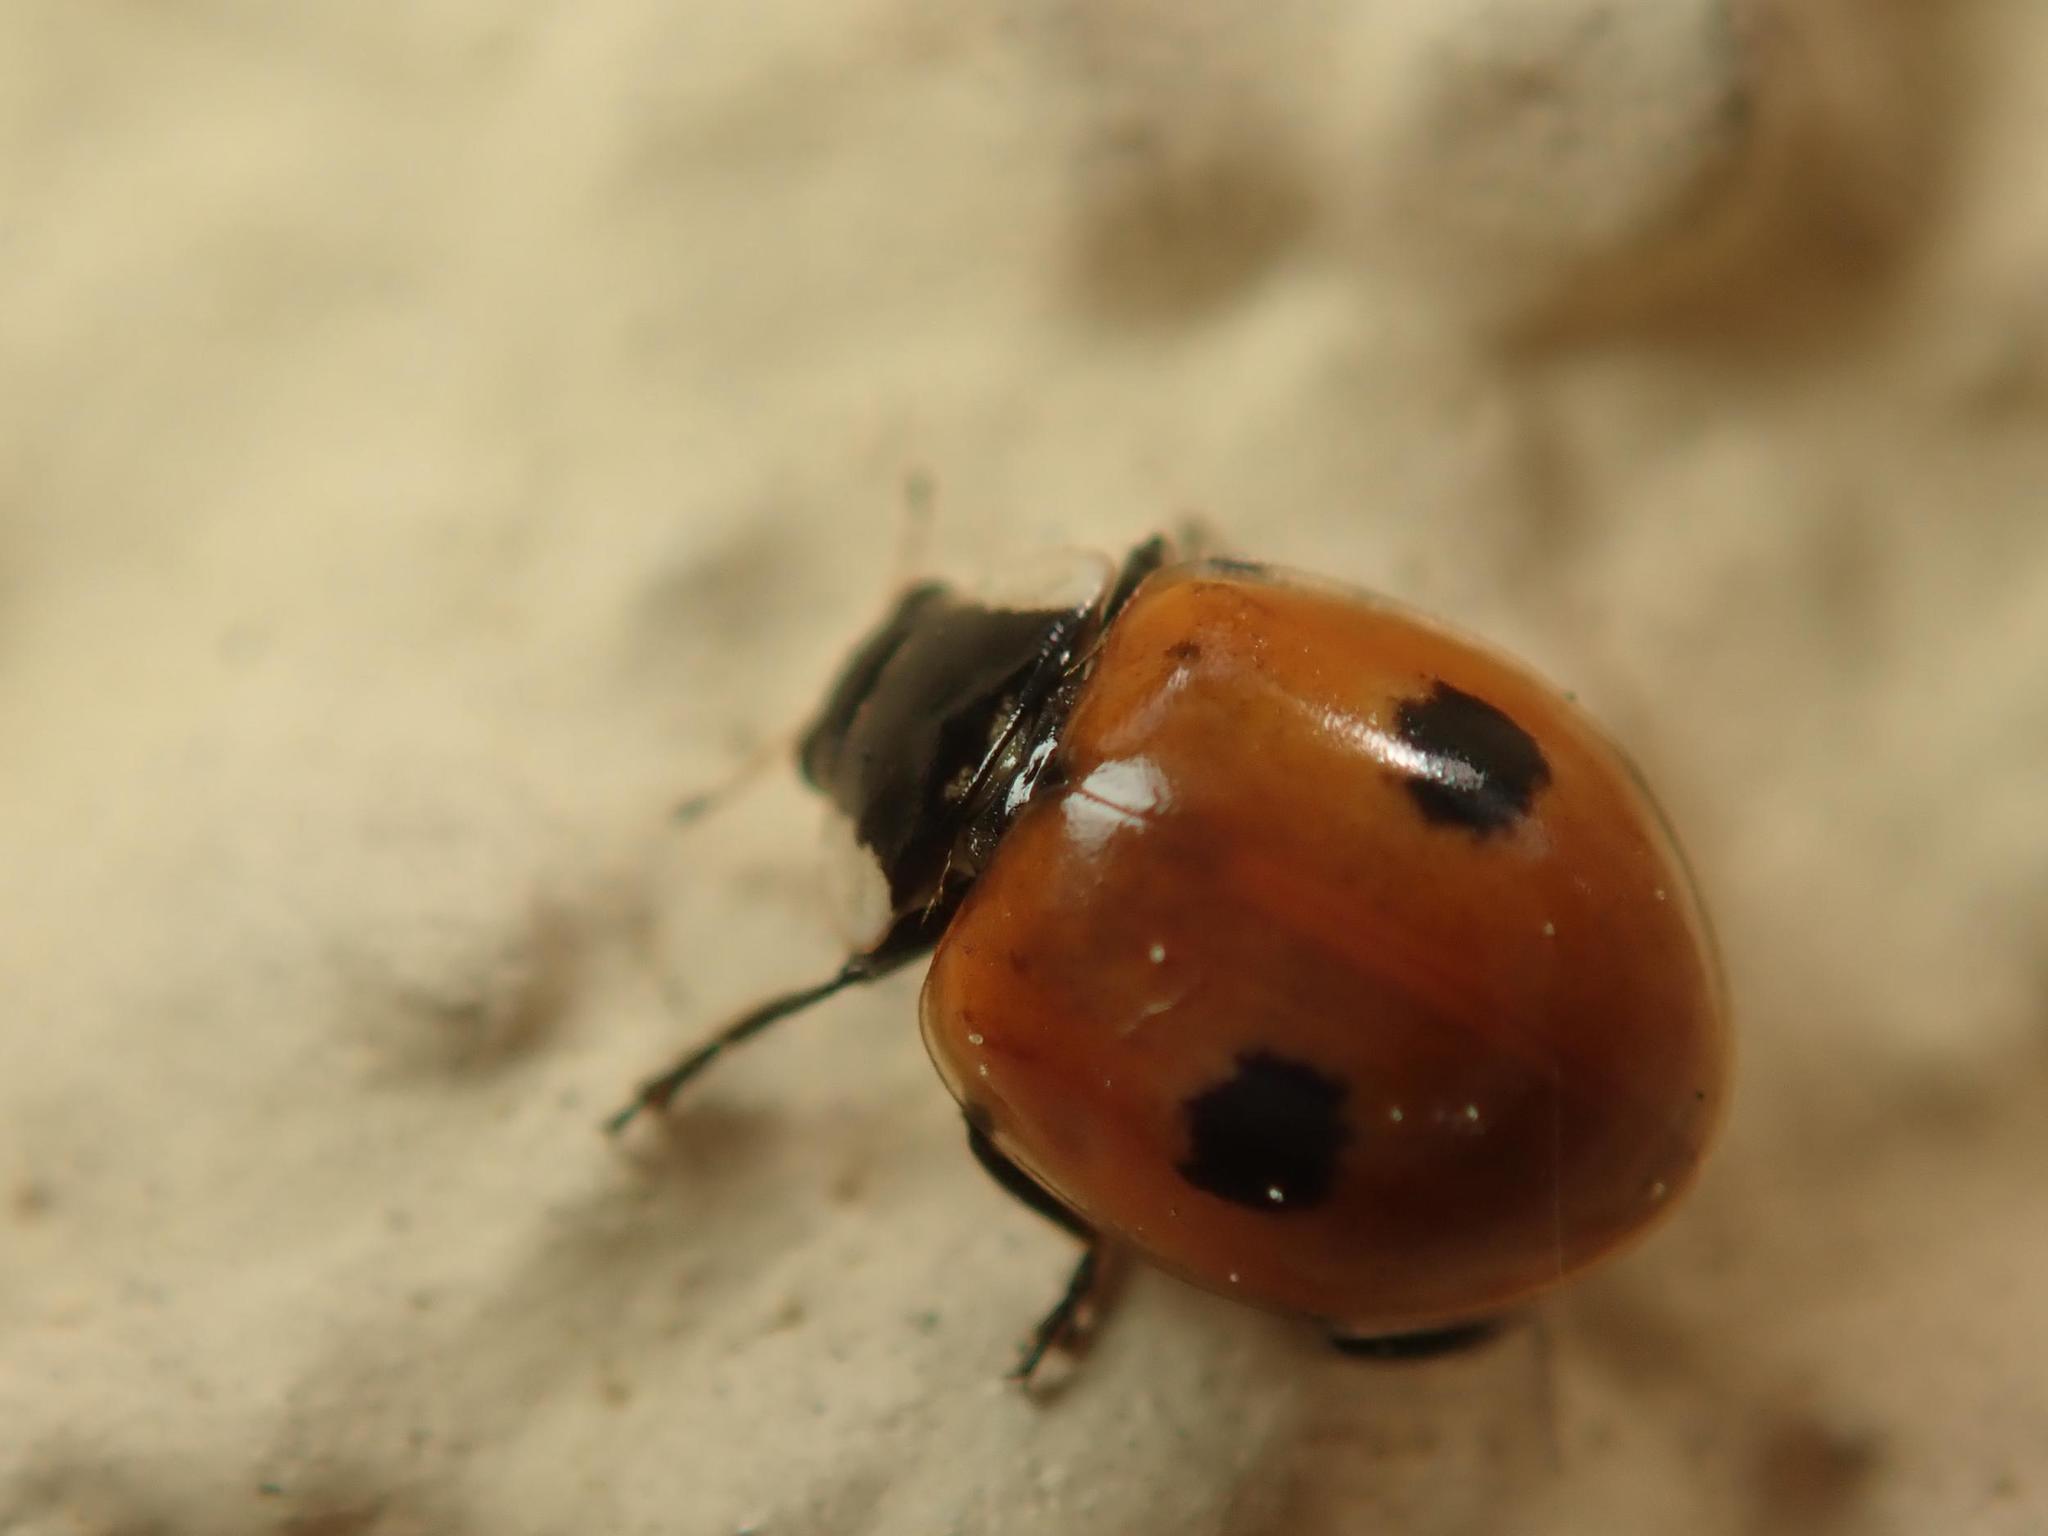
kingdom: Animalia
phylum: Arthropoda
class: Insecta
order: Coleoptera
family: Coccinellidae
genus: Adalia
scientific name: Adalia bipunctata
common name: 2-spot ladybird
